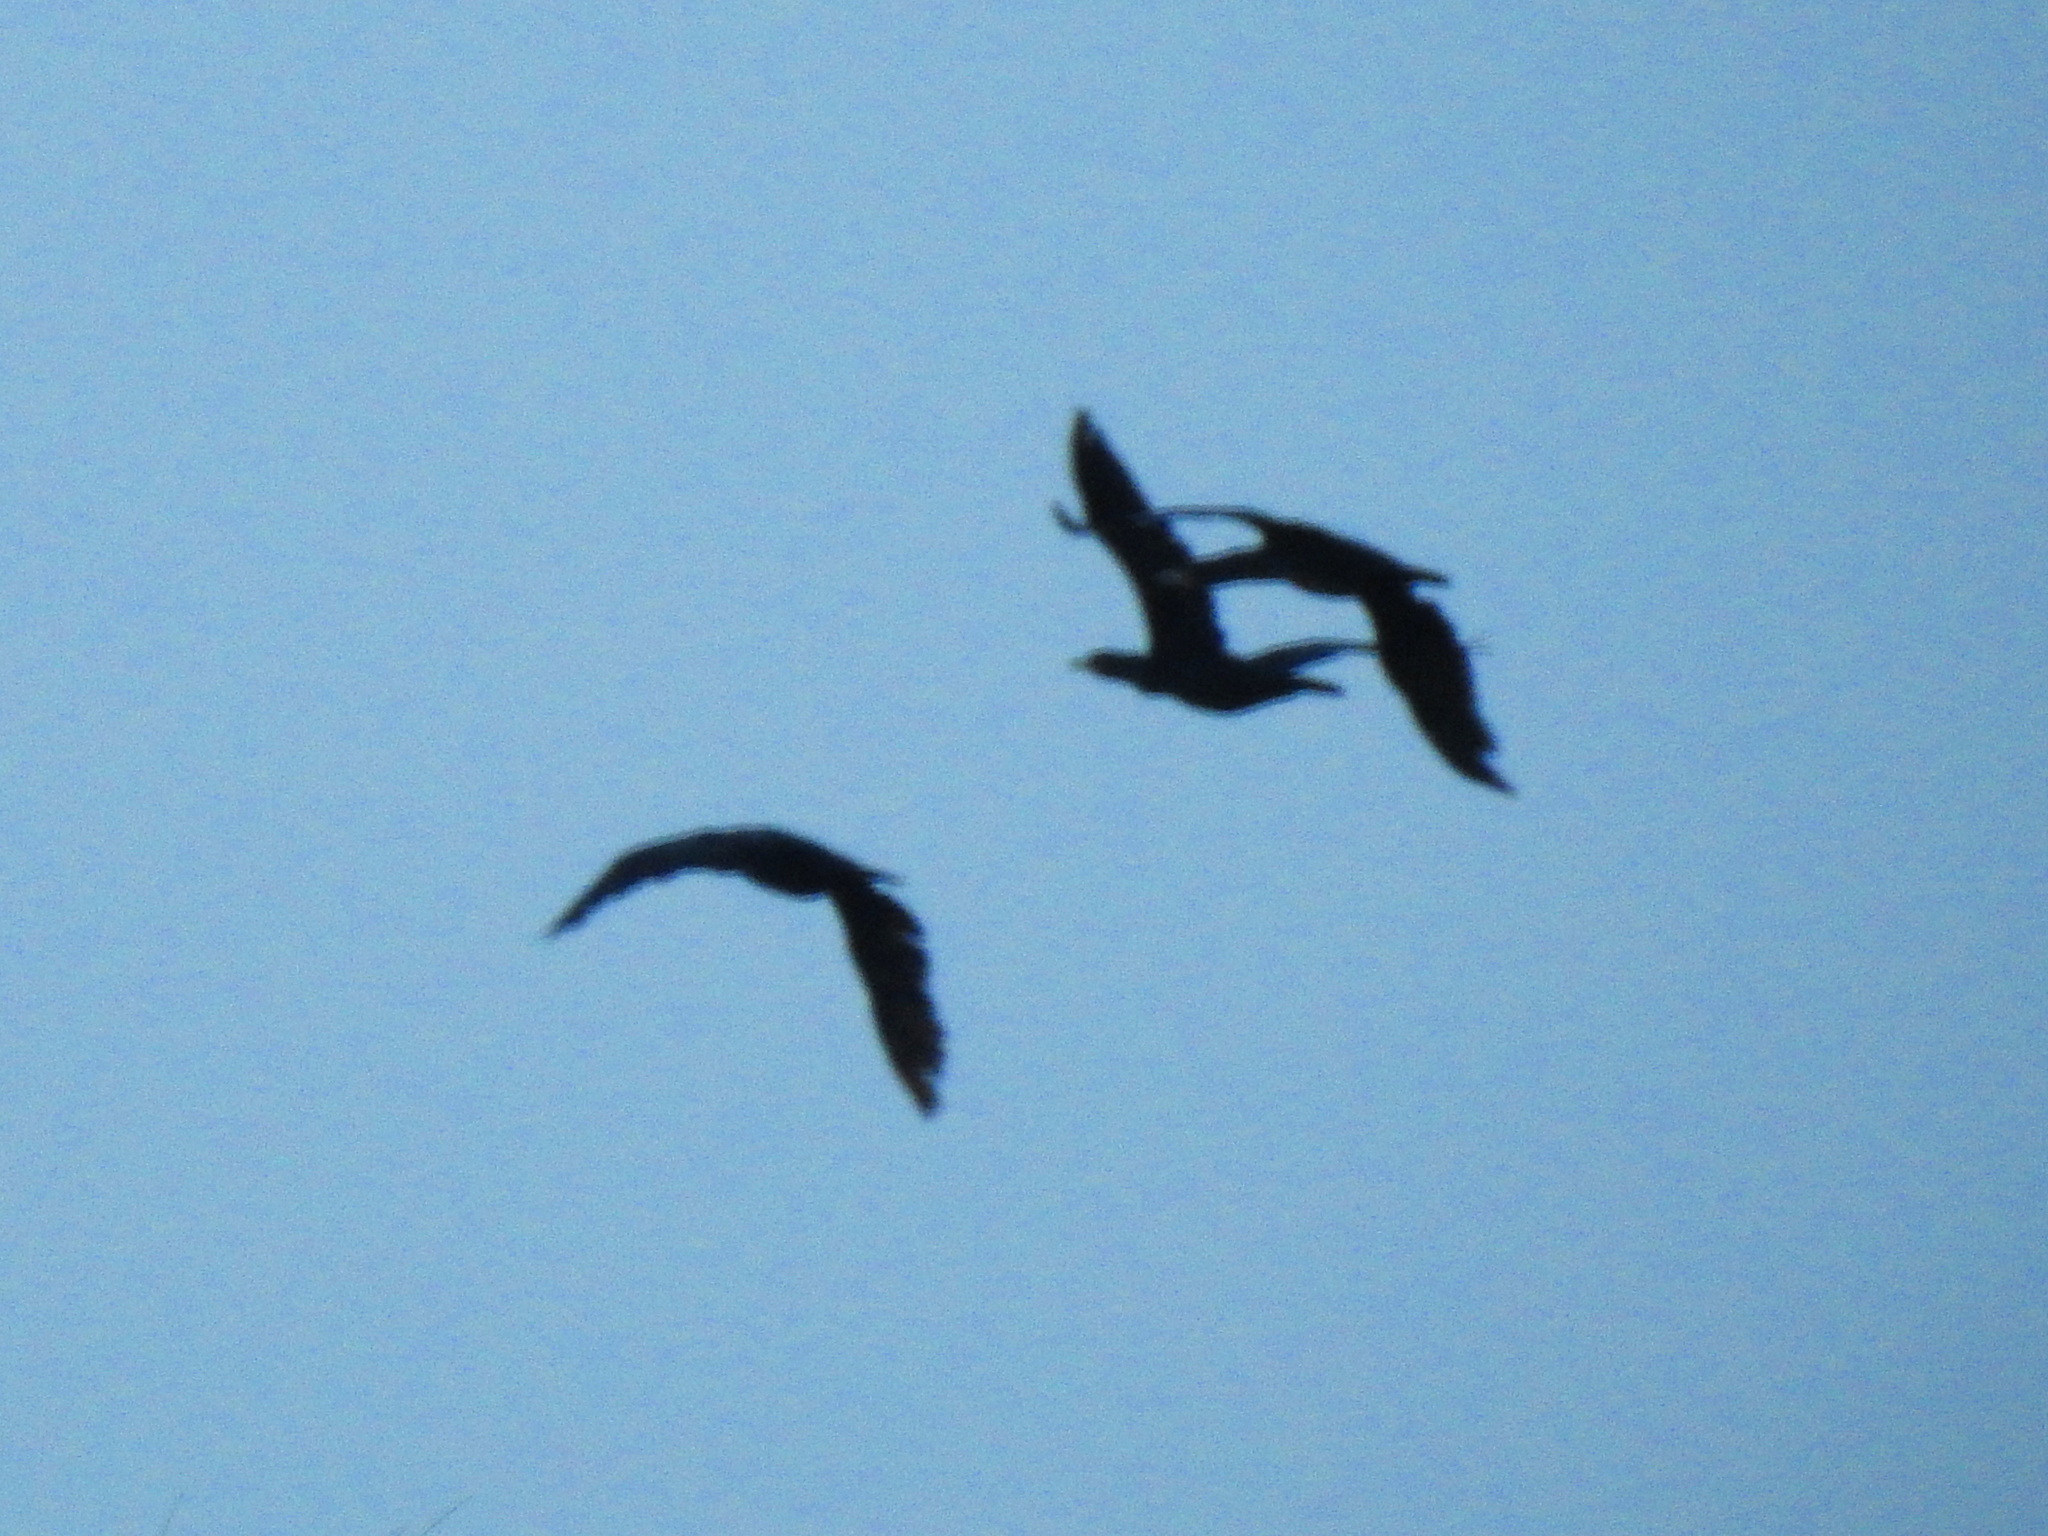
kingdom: Animalia
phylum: Chordata
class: Aves
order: Suliformes
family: Phalacrocoracidae
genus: Phalacrocorax
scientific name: Phalacrocorax carbo
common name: Great cormorant
